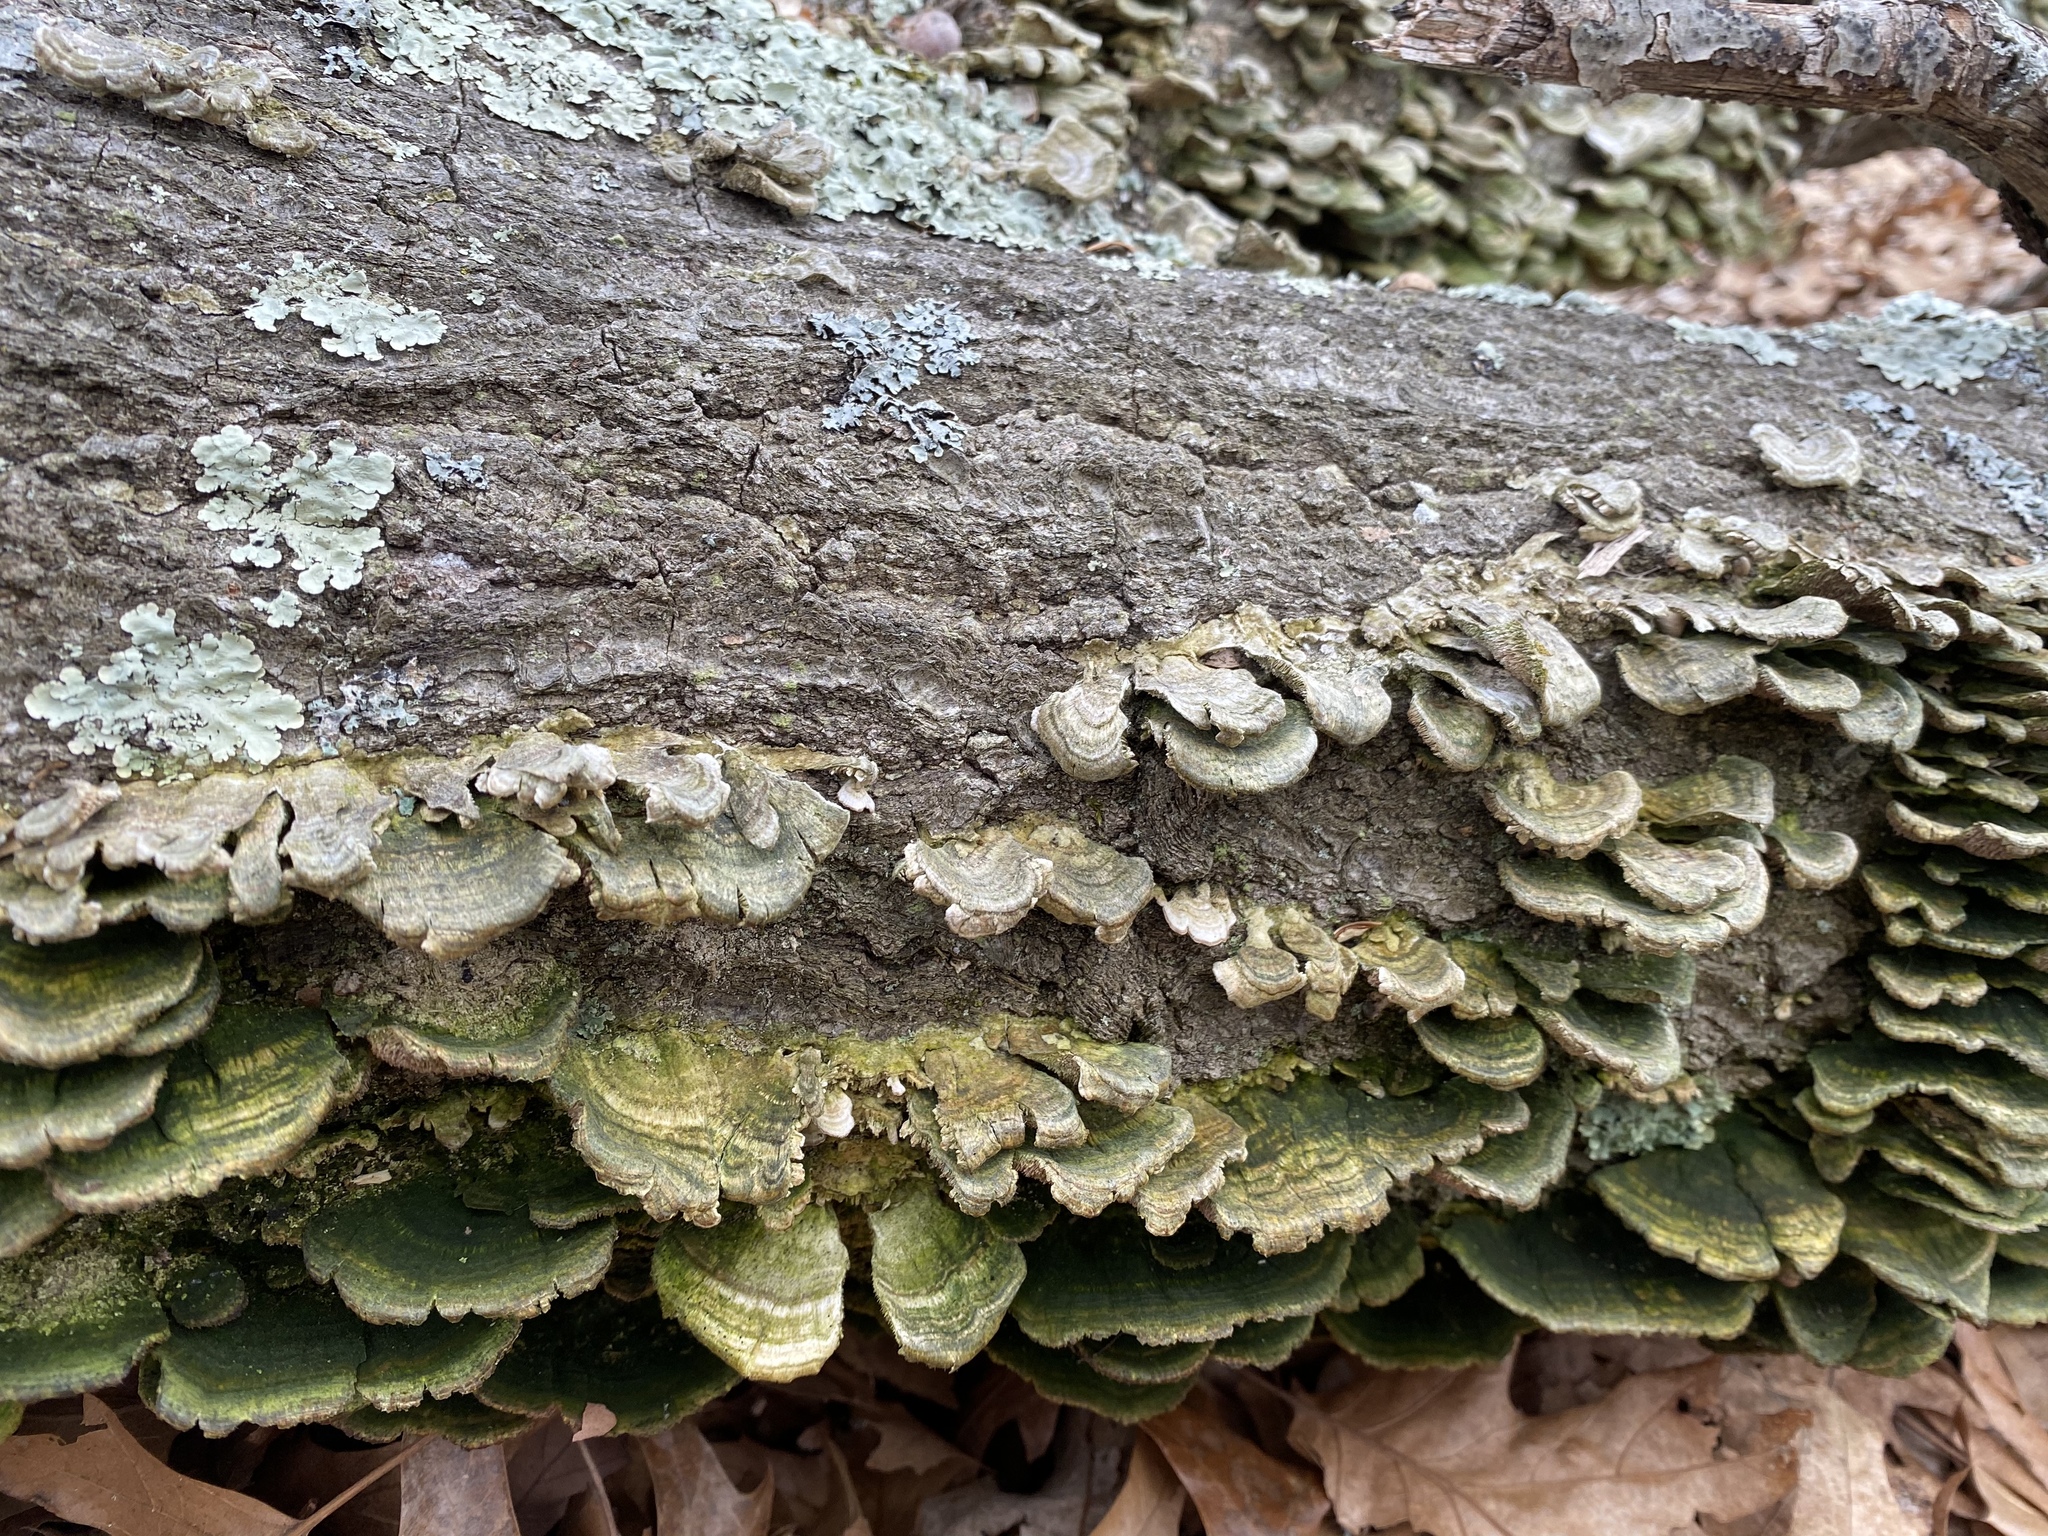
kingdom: Fungi
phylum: Basidiomycota
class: Agaricomycetes
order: Hymenochaetales
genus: Trichaptum
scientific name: Trichaptum biforme
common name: Violet-toothed polypore
